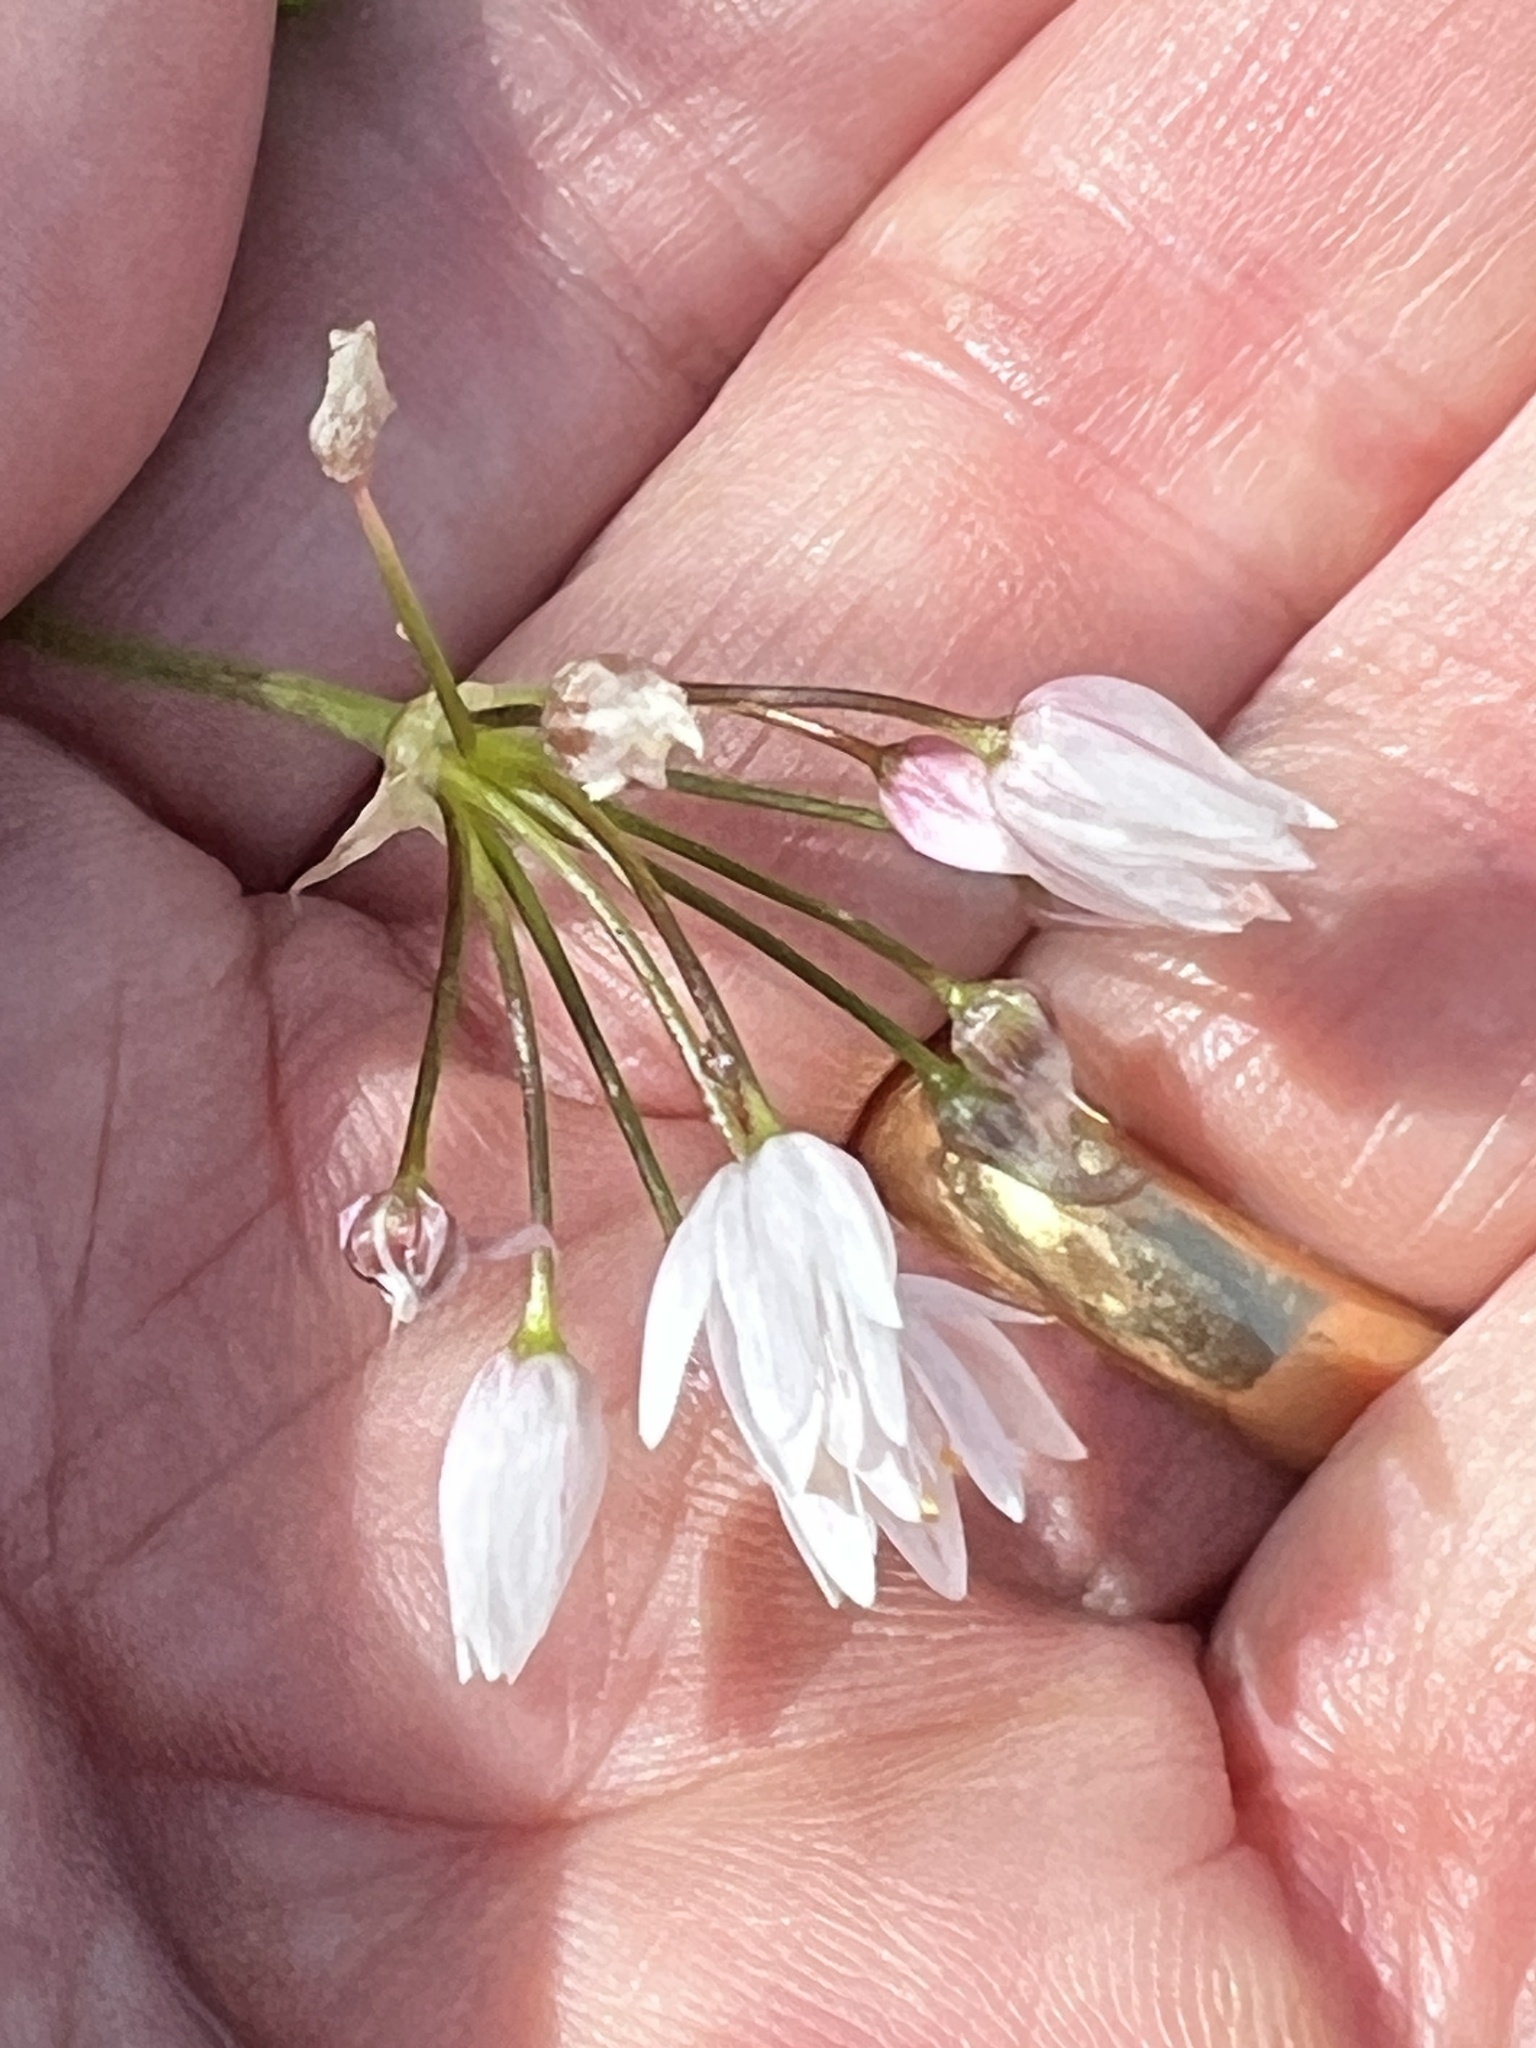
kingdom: Plantae
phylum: Tracheophyta
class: Liliopsida
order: Asparagales
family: Amaryllidaceae
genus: Allium
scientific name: Allium canariense
